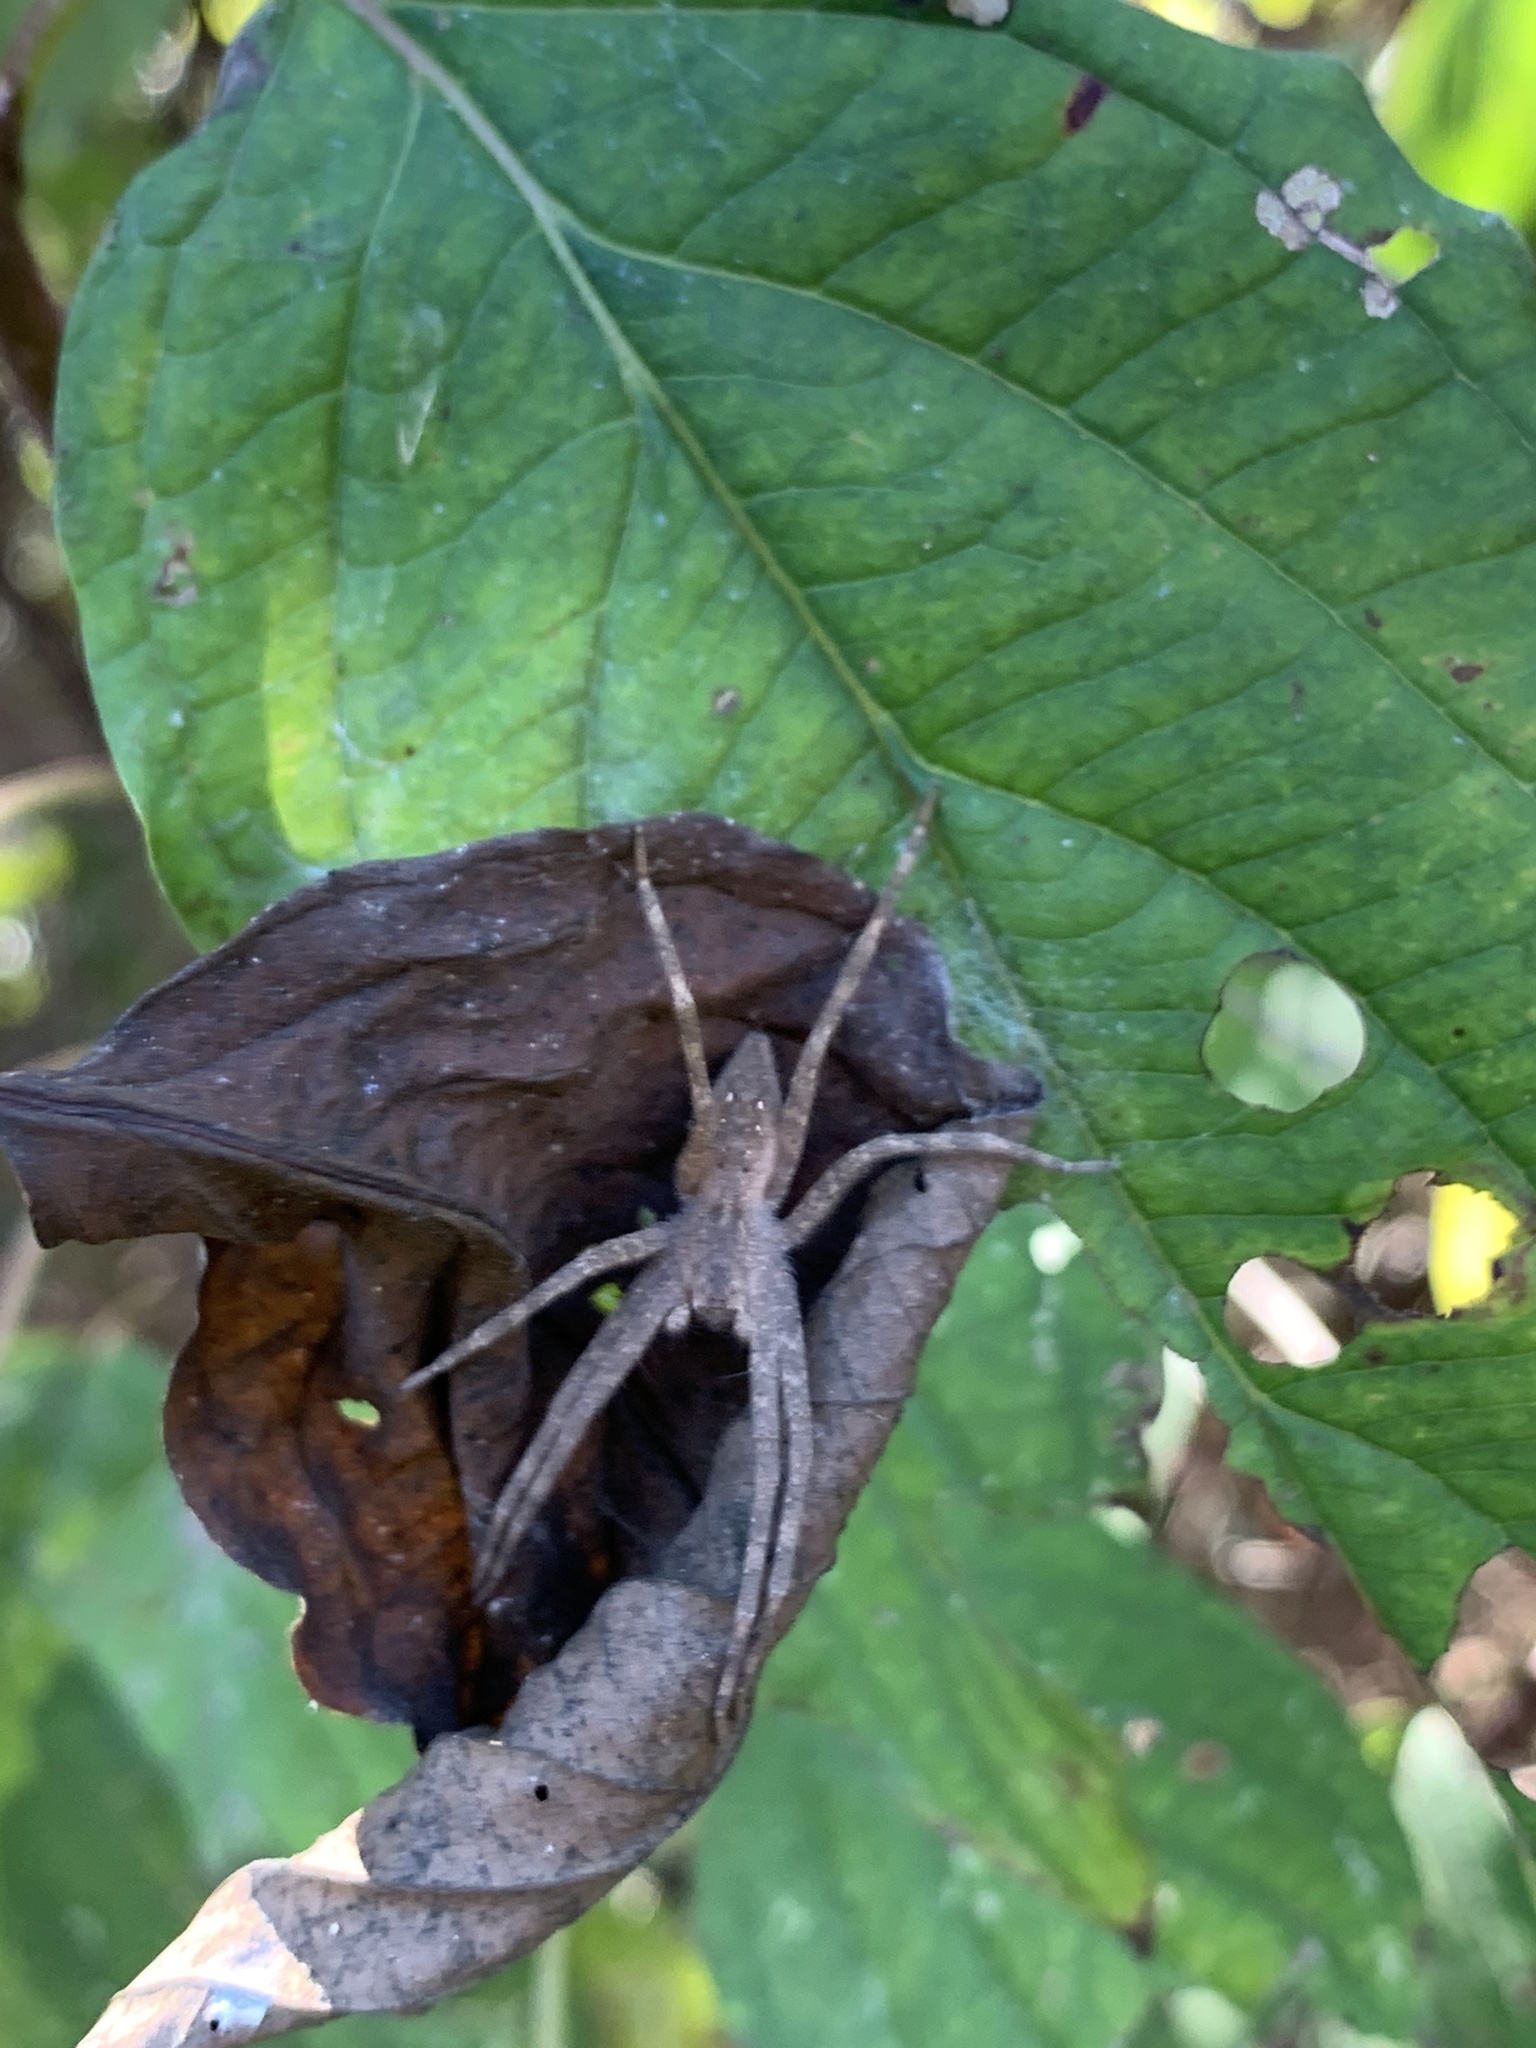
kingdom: Animalia
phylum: Arthropoda
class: Arachnida
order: Araneae
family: Pisauridae
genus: Pisaurina
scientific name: Pisaurina mira
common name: American nursery web spider
